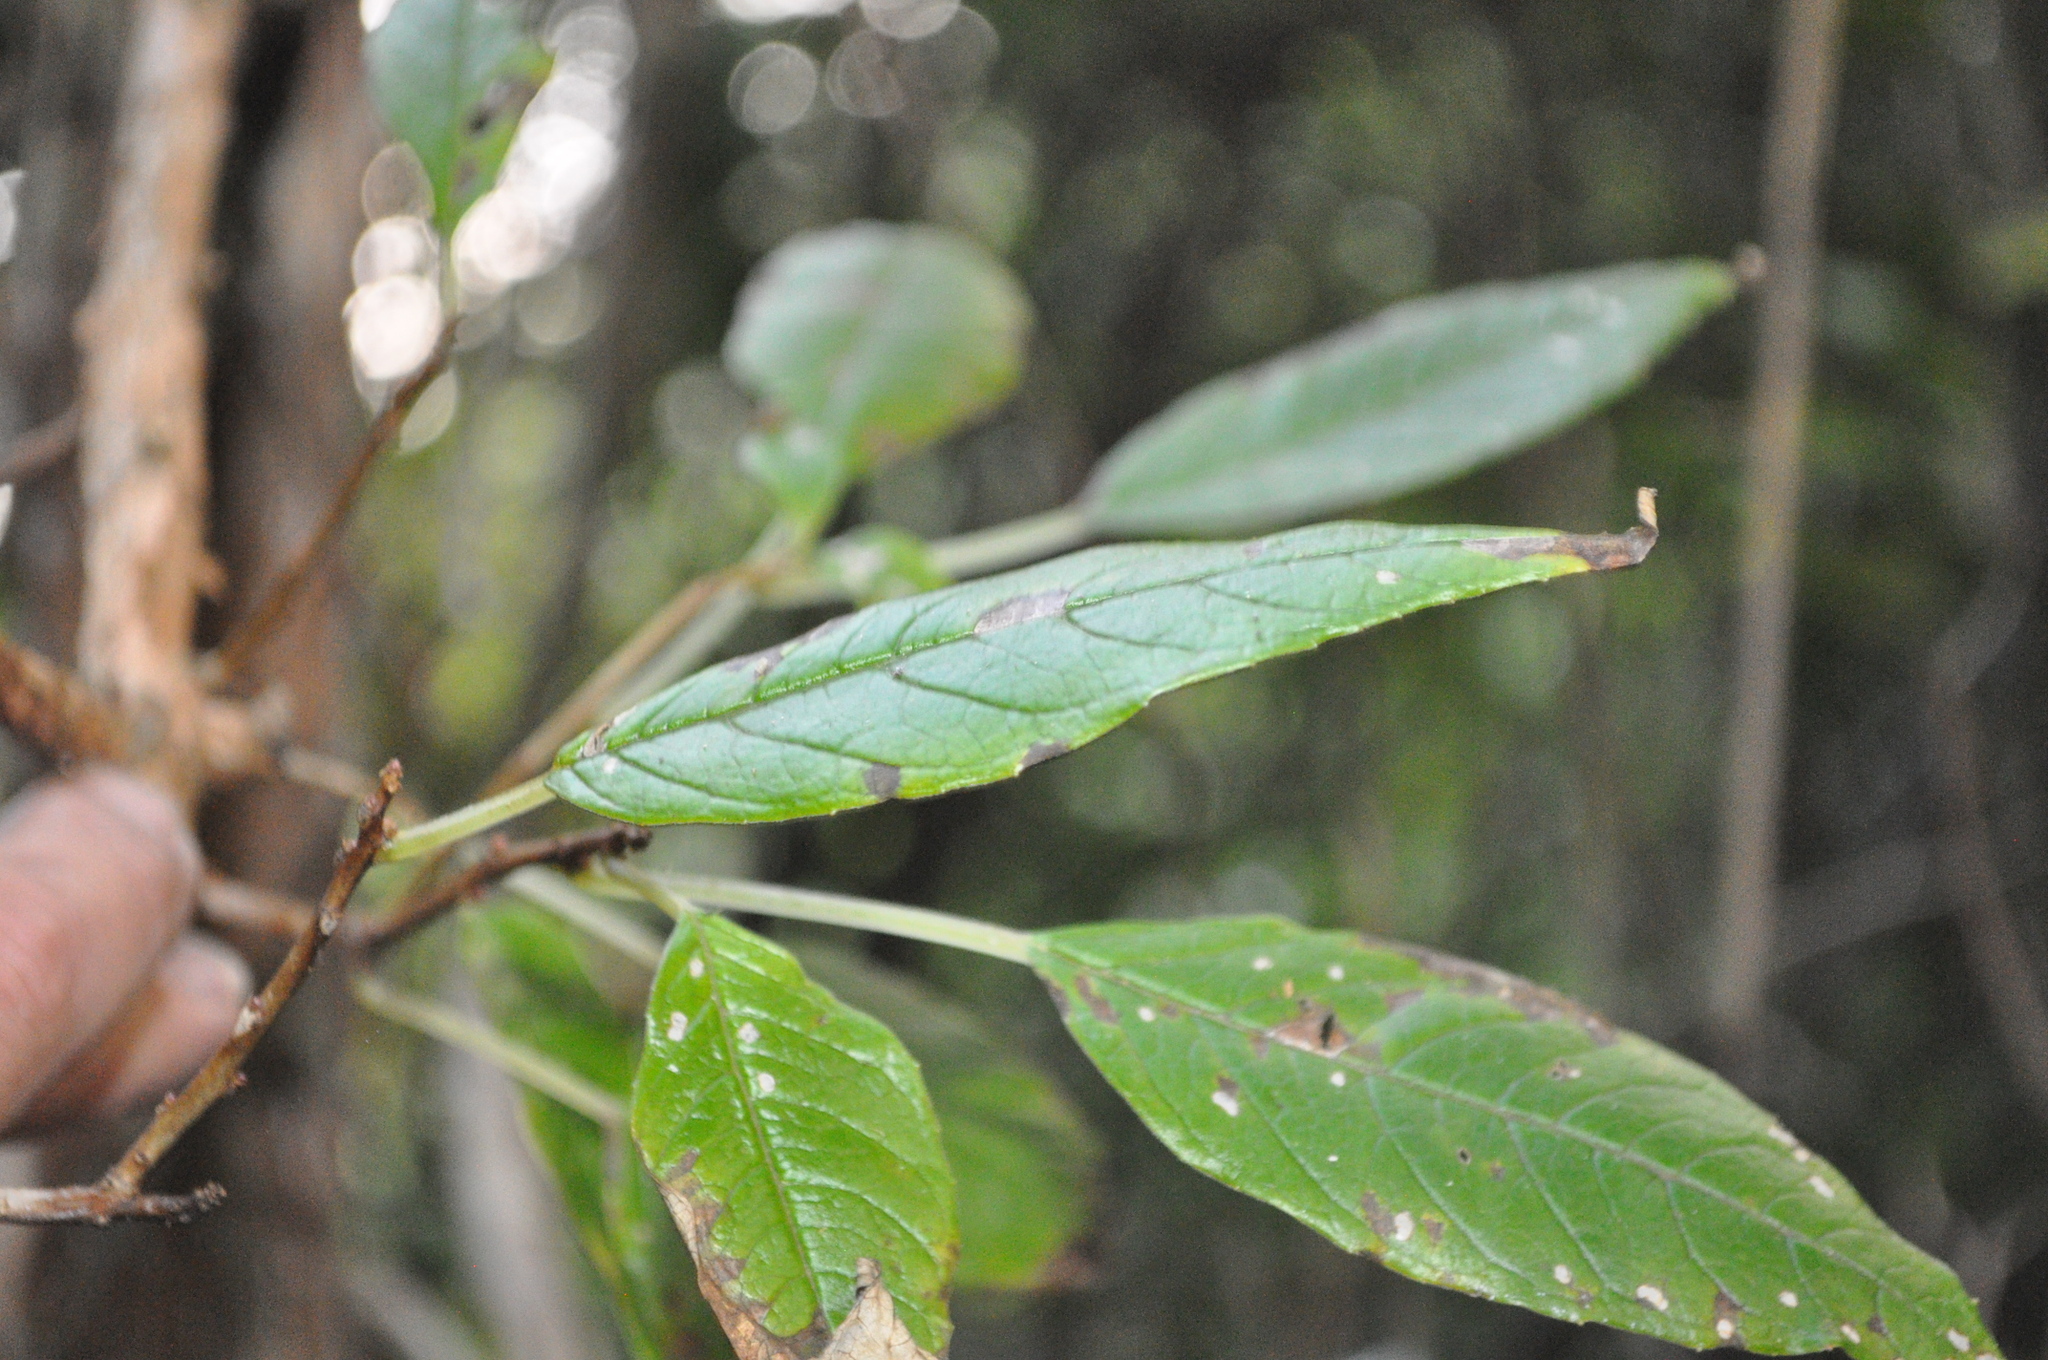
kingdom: Plantae
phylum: Tracheophyta
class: Magnoliopsida
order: Myrtales
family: Onagraceae
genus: Fuchsia
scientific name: Fuchsia excorticata
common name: Tree fuchsia
